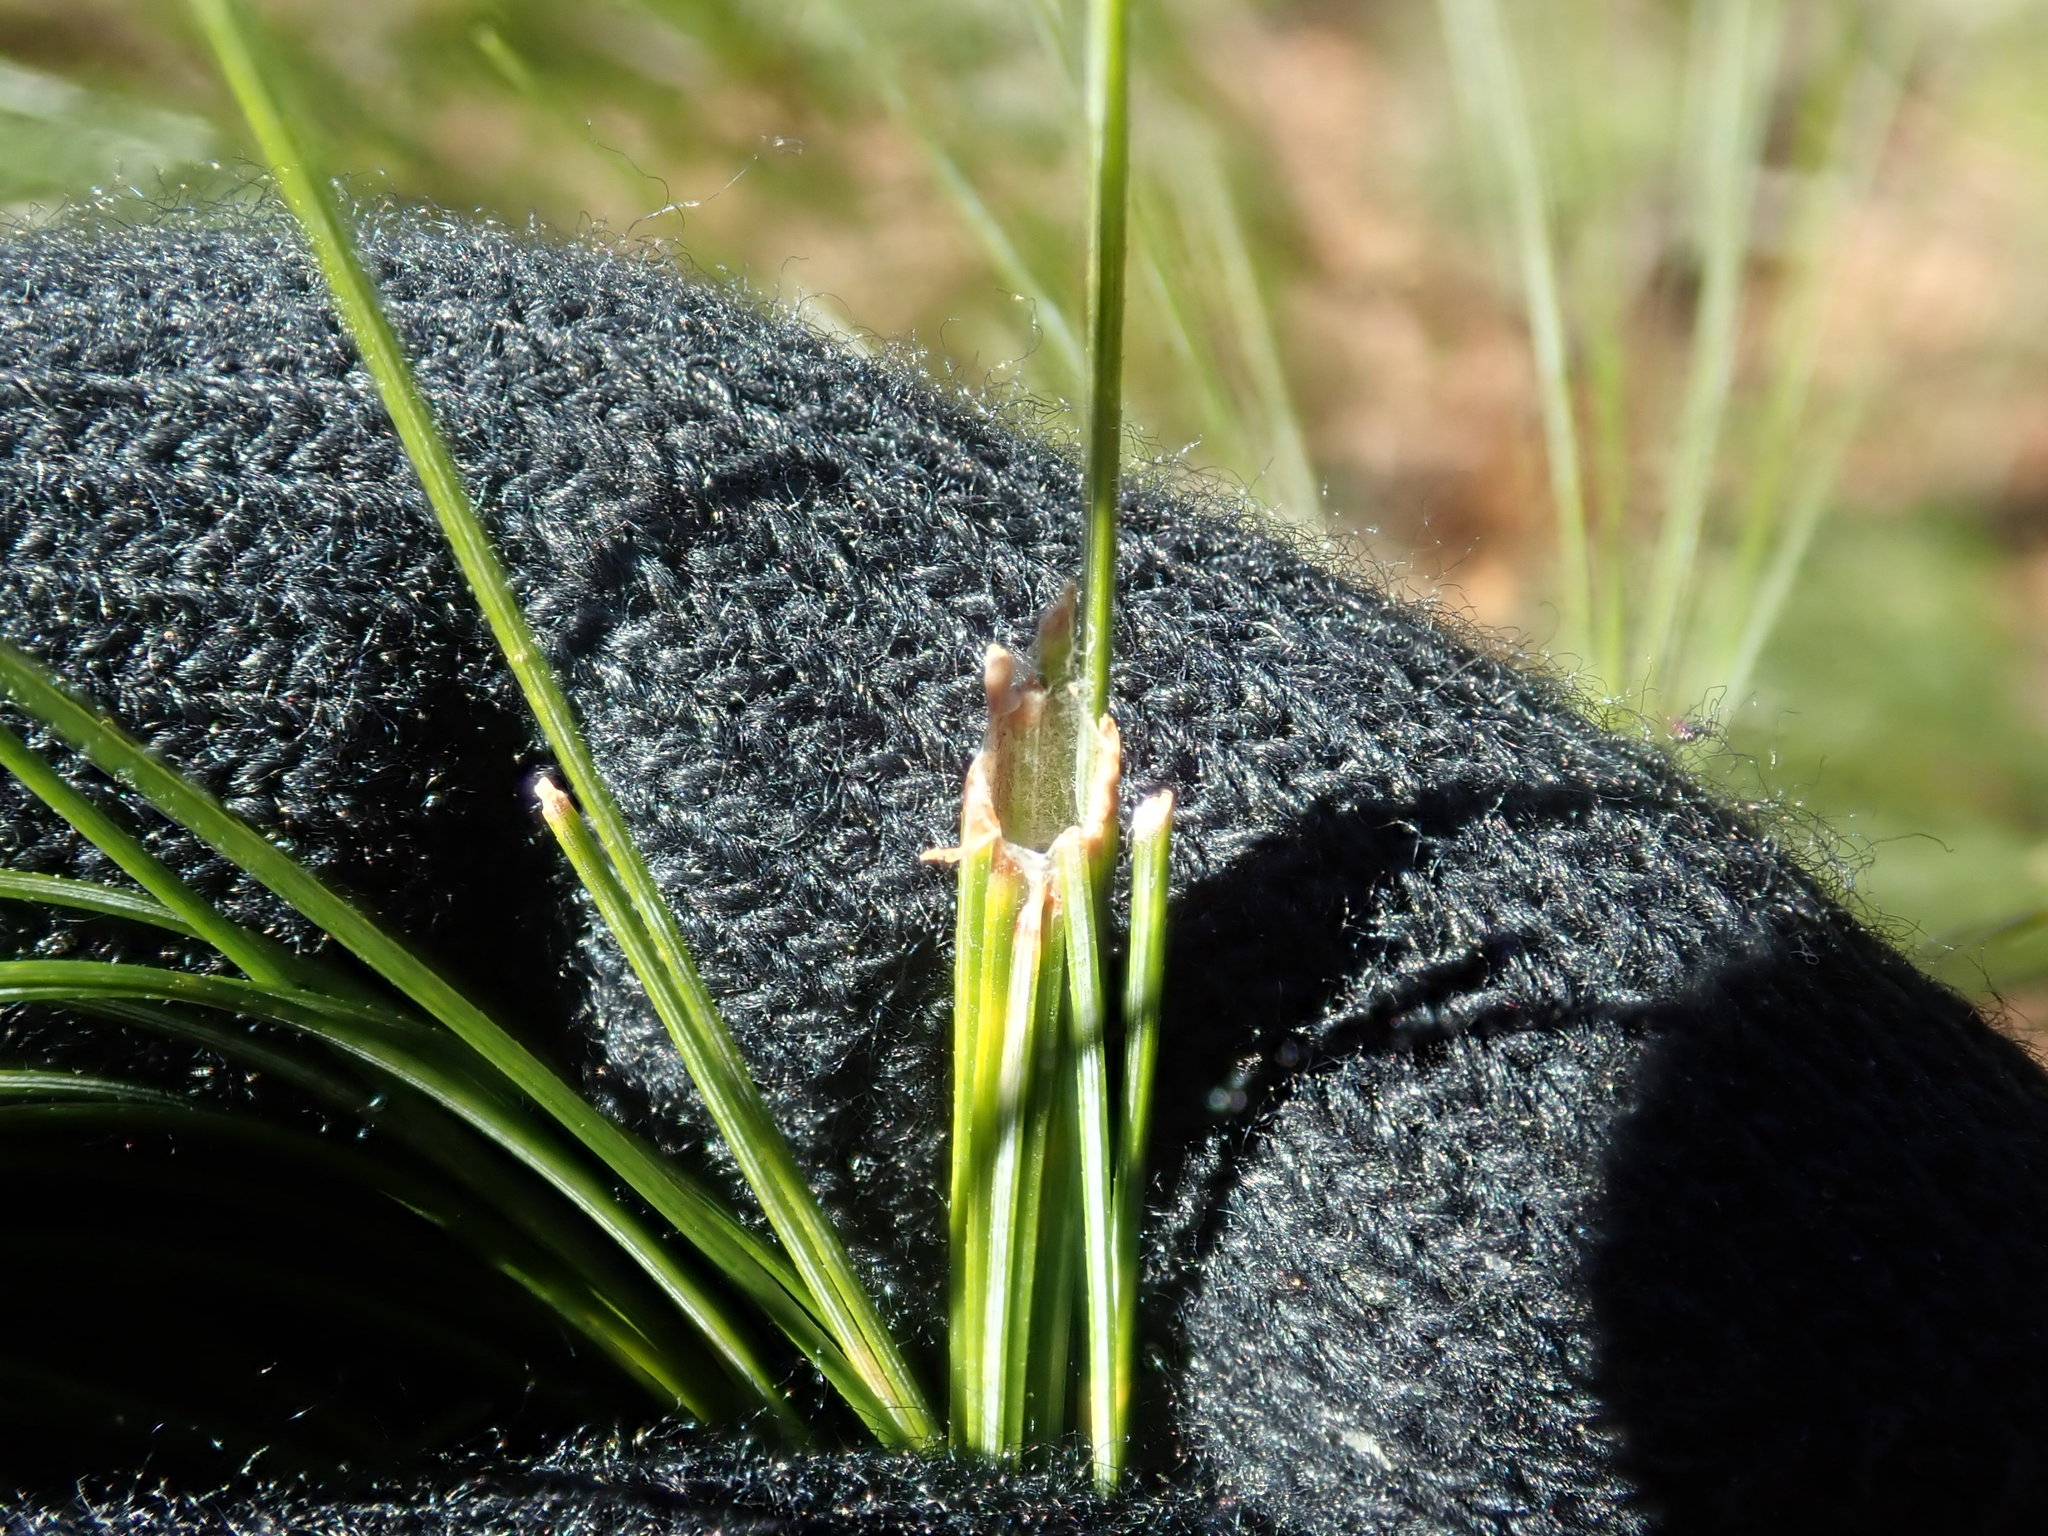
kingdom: Animalia
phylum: Arthropoda
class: Insecta
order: Lepidoptera
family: Tortricidae
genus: Argyrotaenia
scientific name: Argyrotaenia pinatubana
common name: Pine tube moth
